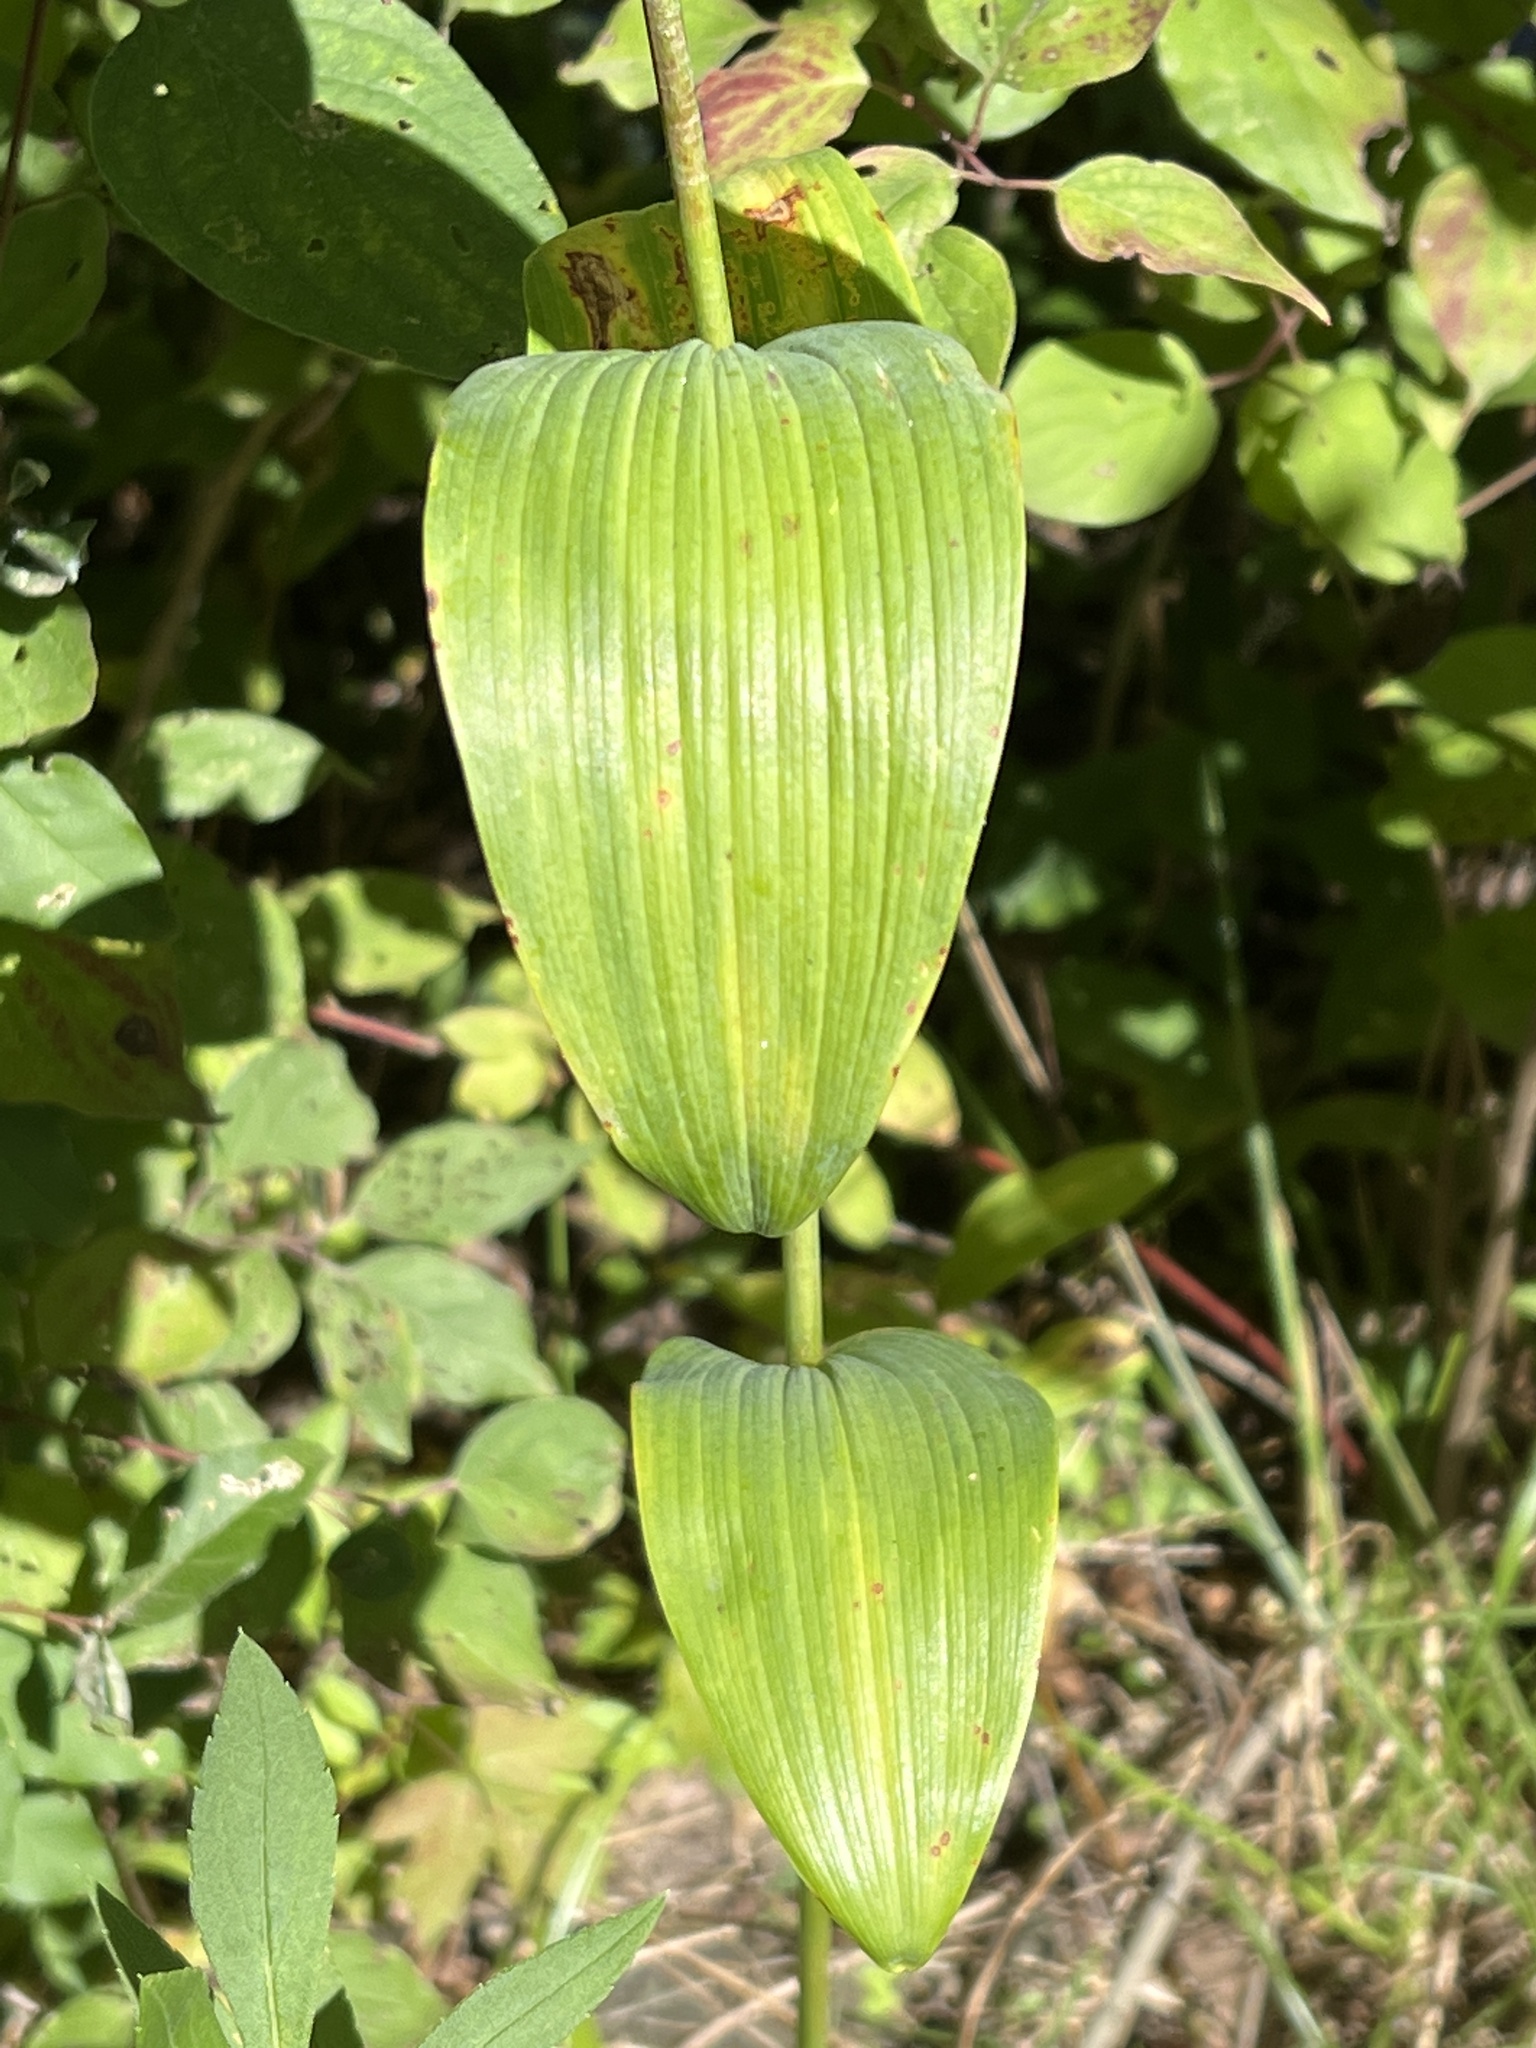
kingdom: Plantae
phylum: Tracheophyta
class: Liliopsida
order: Asparagales
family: Asparagaceae
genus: Polygonatum
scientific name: Polygonatum biflorum
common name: American solomon's-seal
